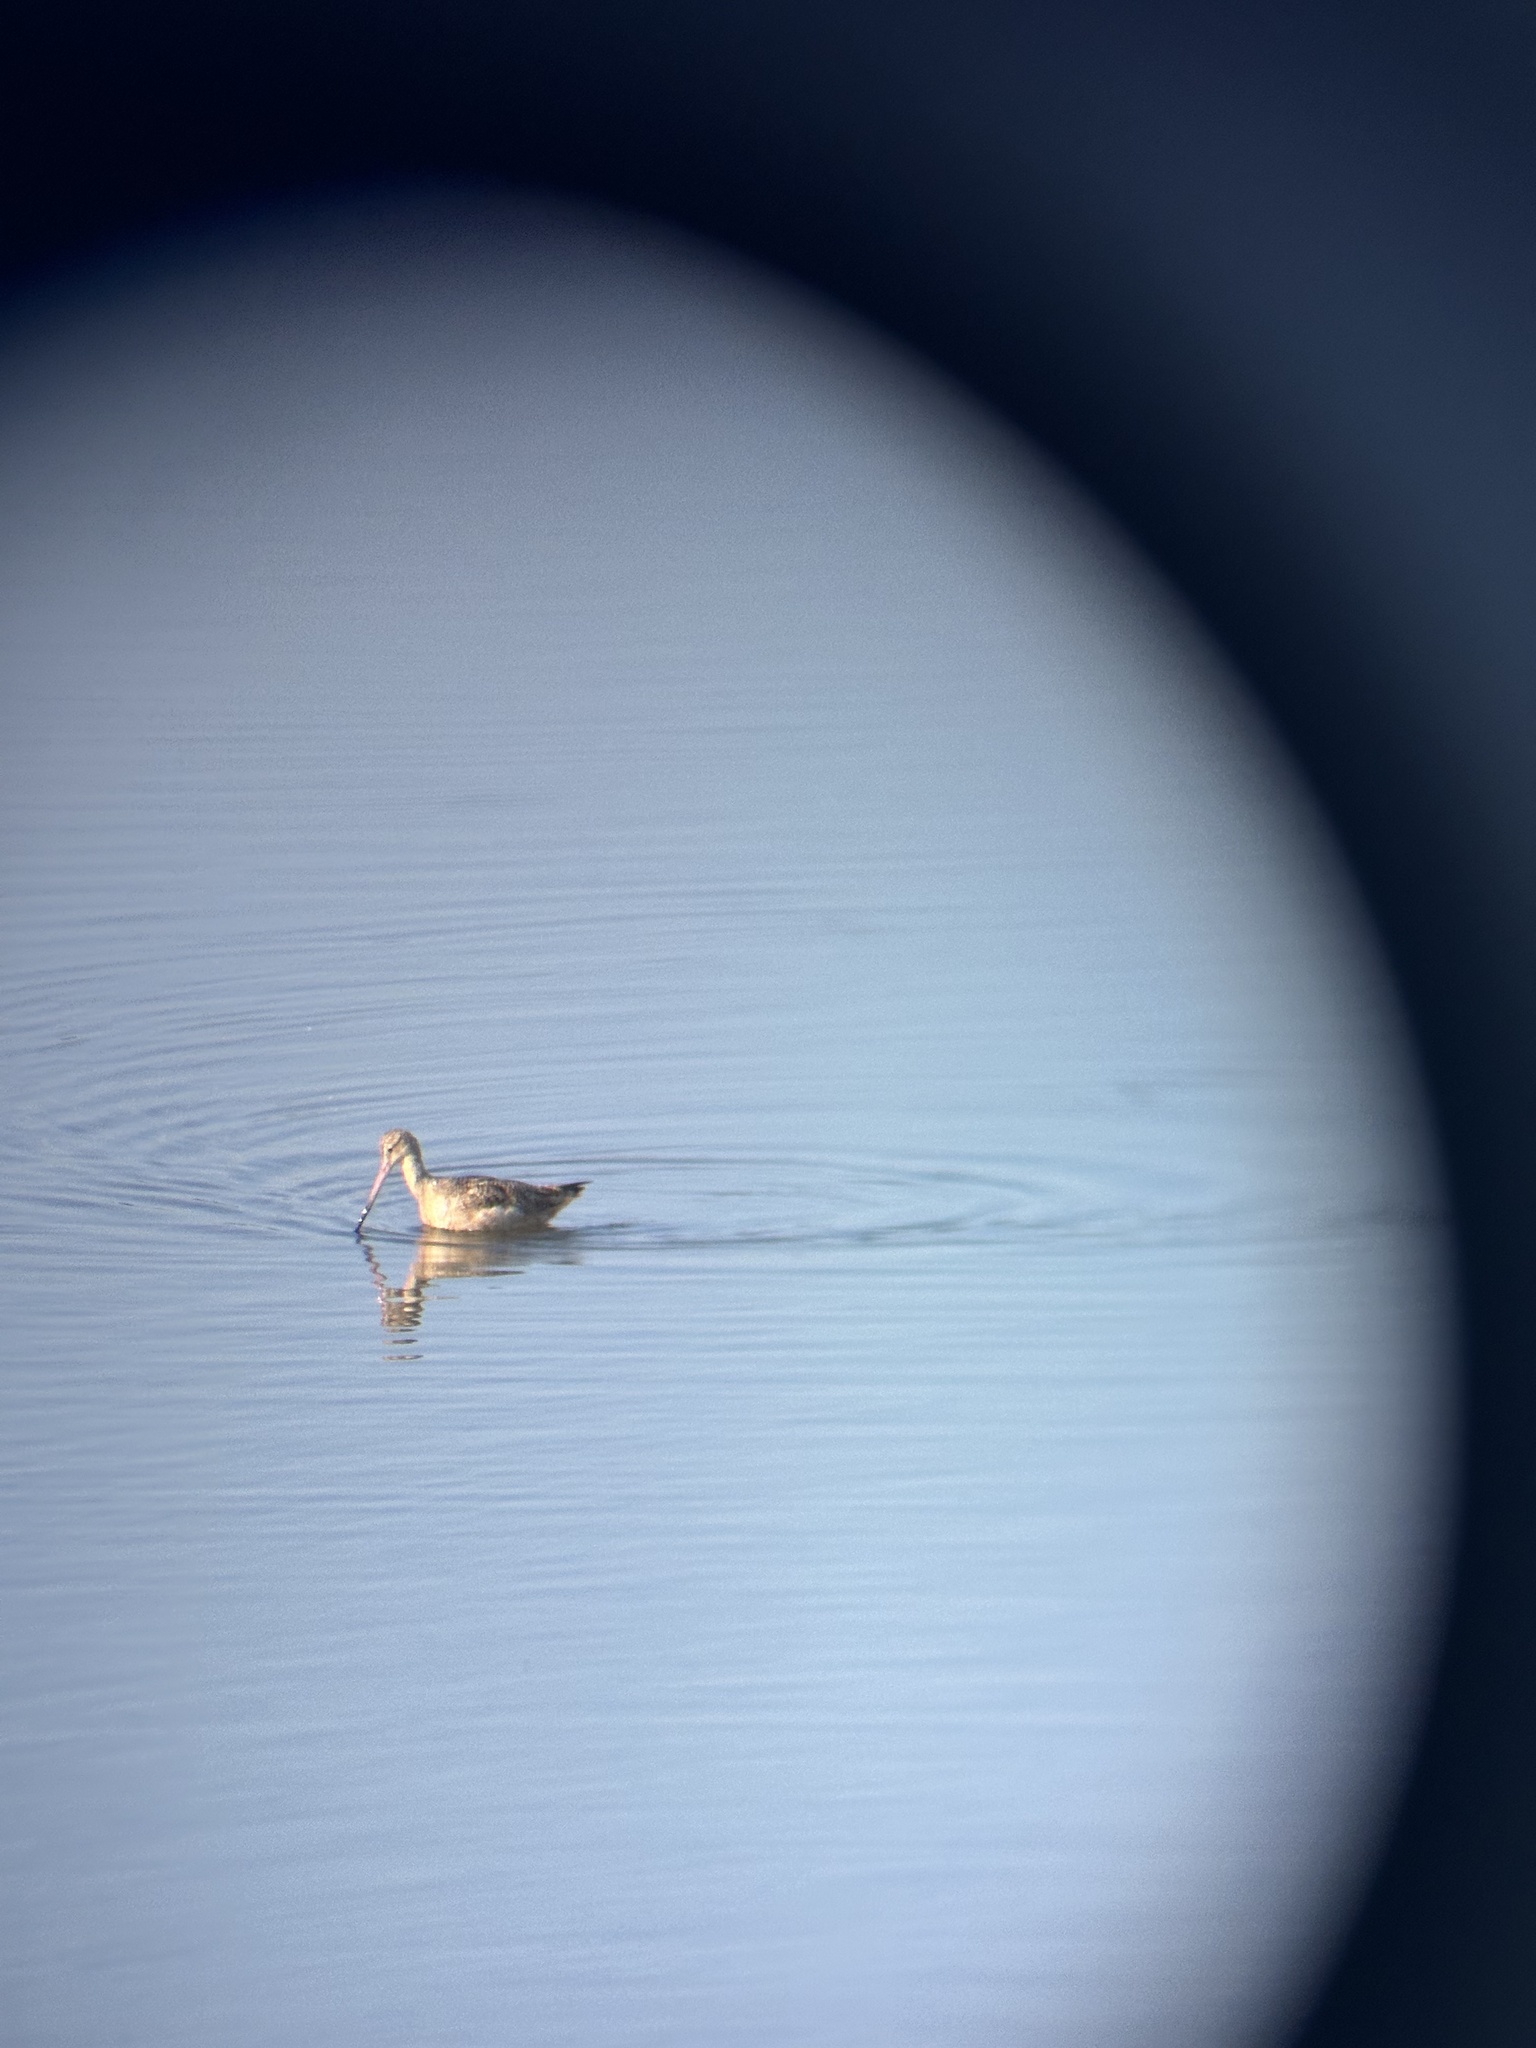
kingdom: Animalia
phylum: Chordata
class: Aves
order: Charadriiformes
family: Scolopacidae
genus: Limosa
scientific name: Limosa fedoa
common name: Marbled godwit
